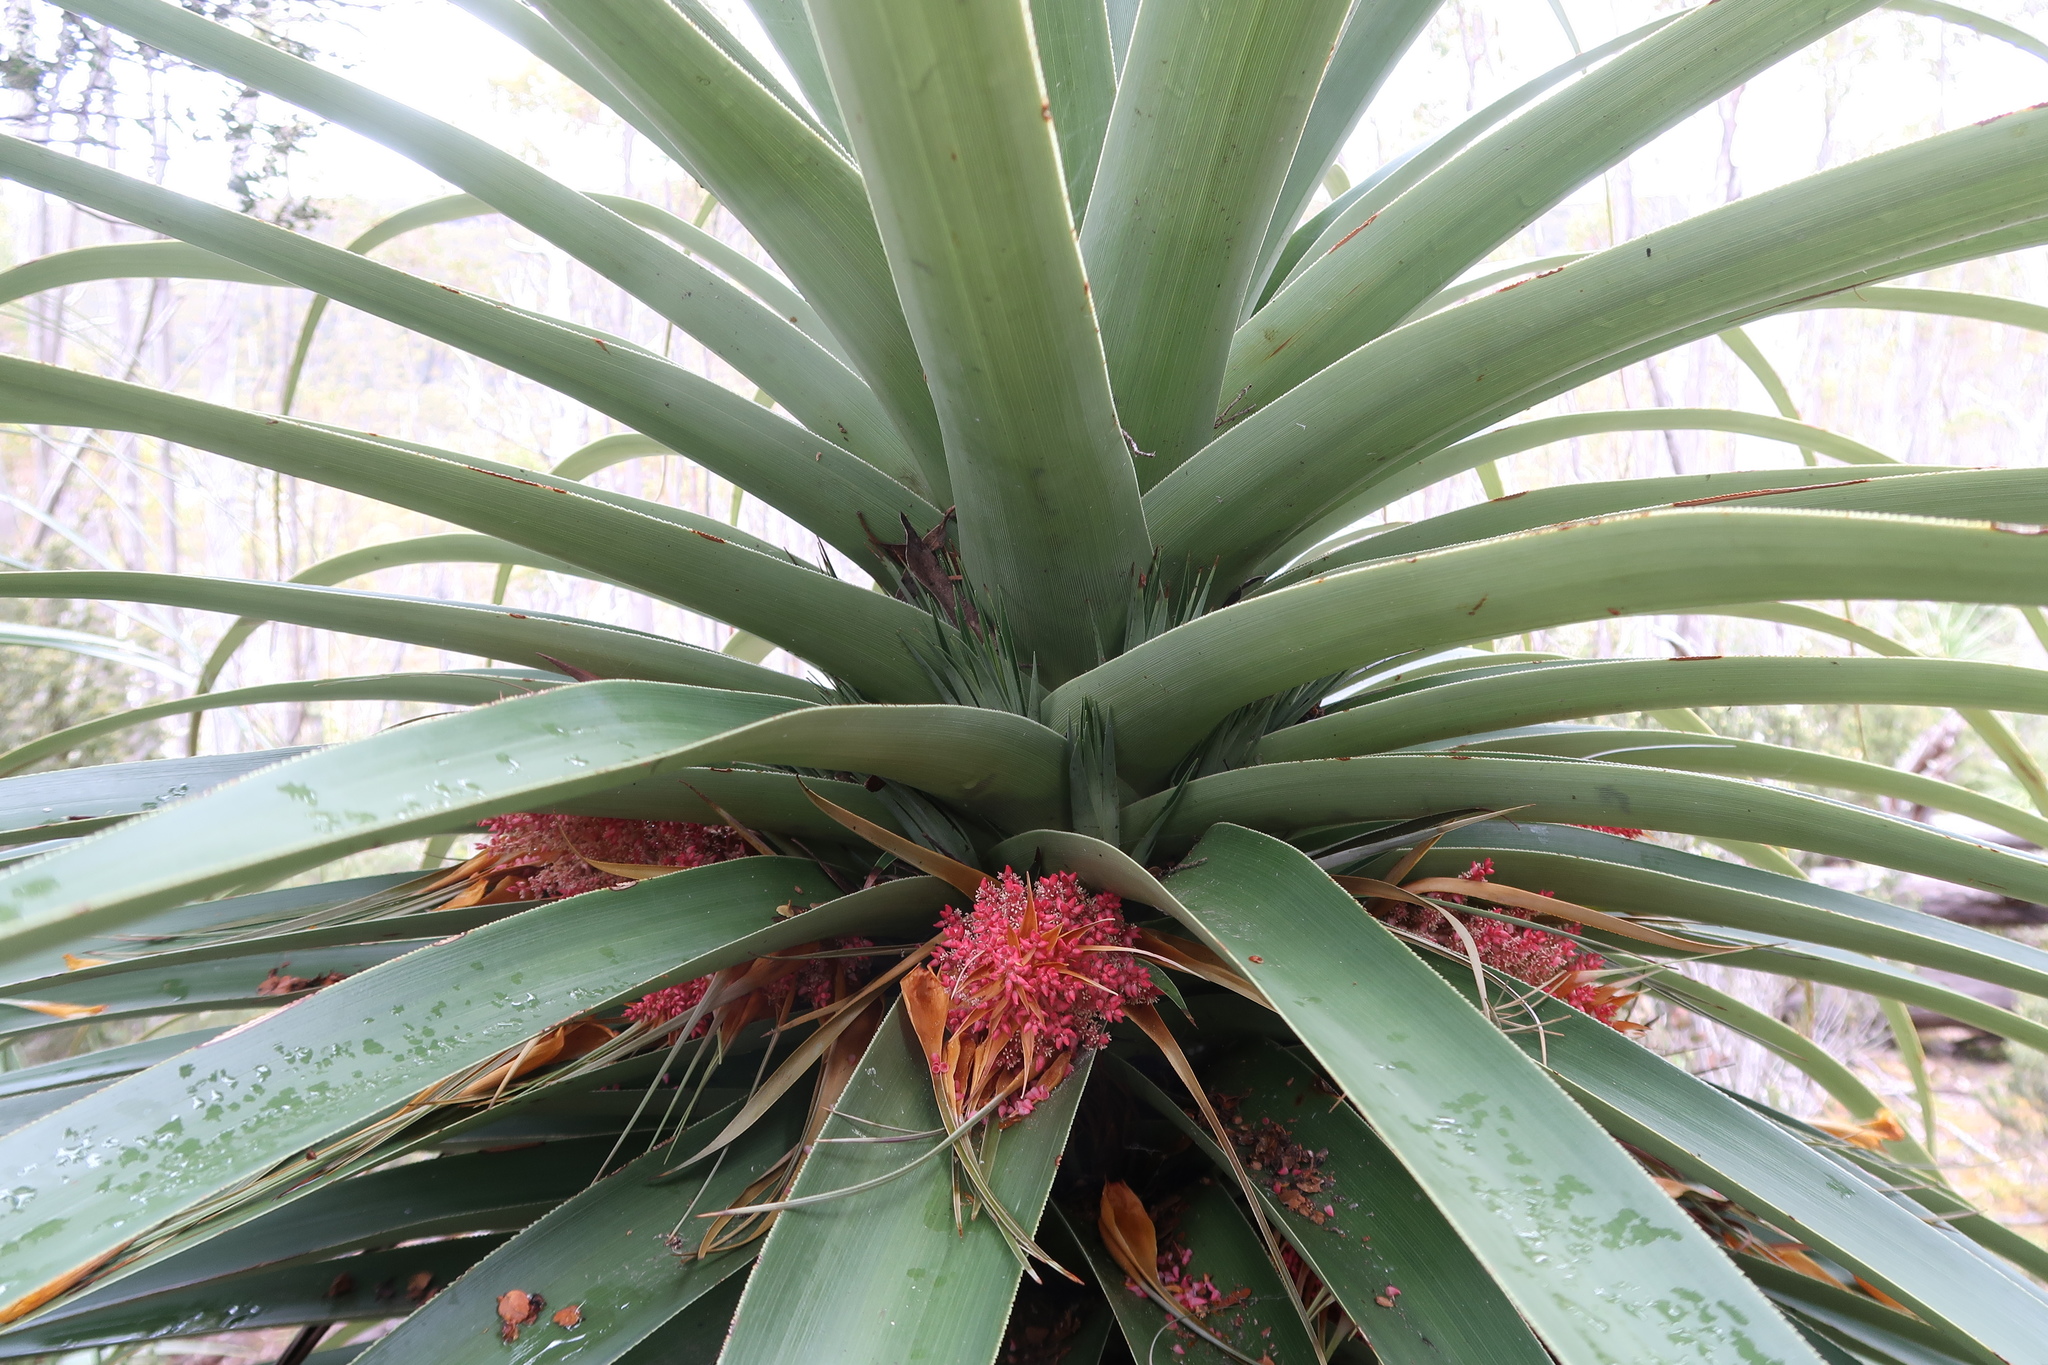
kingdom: Plantae
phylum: Tracheophyta
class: Magnoliopsida
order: Ericales
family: Ericaceae
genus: Dracophyllum
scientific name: Dracophyllum pandanifolium
